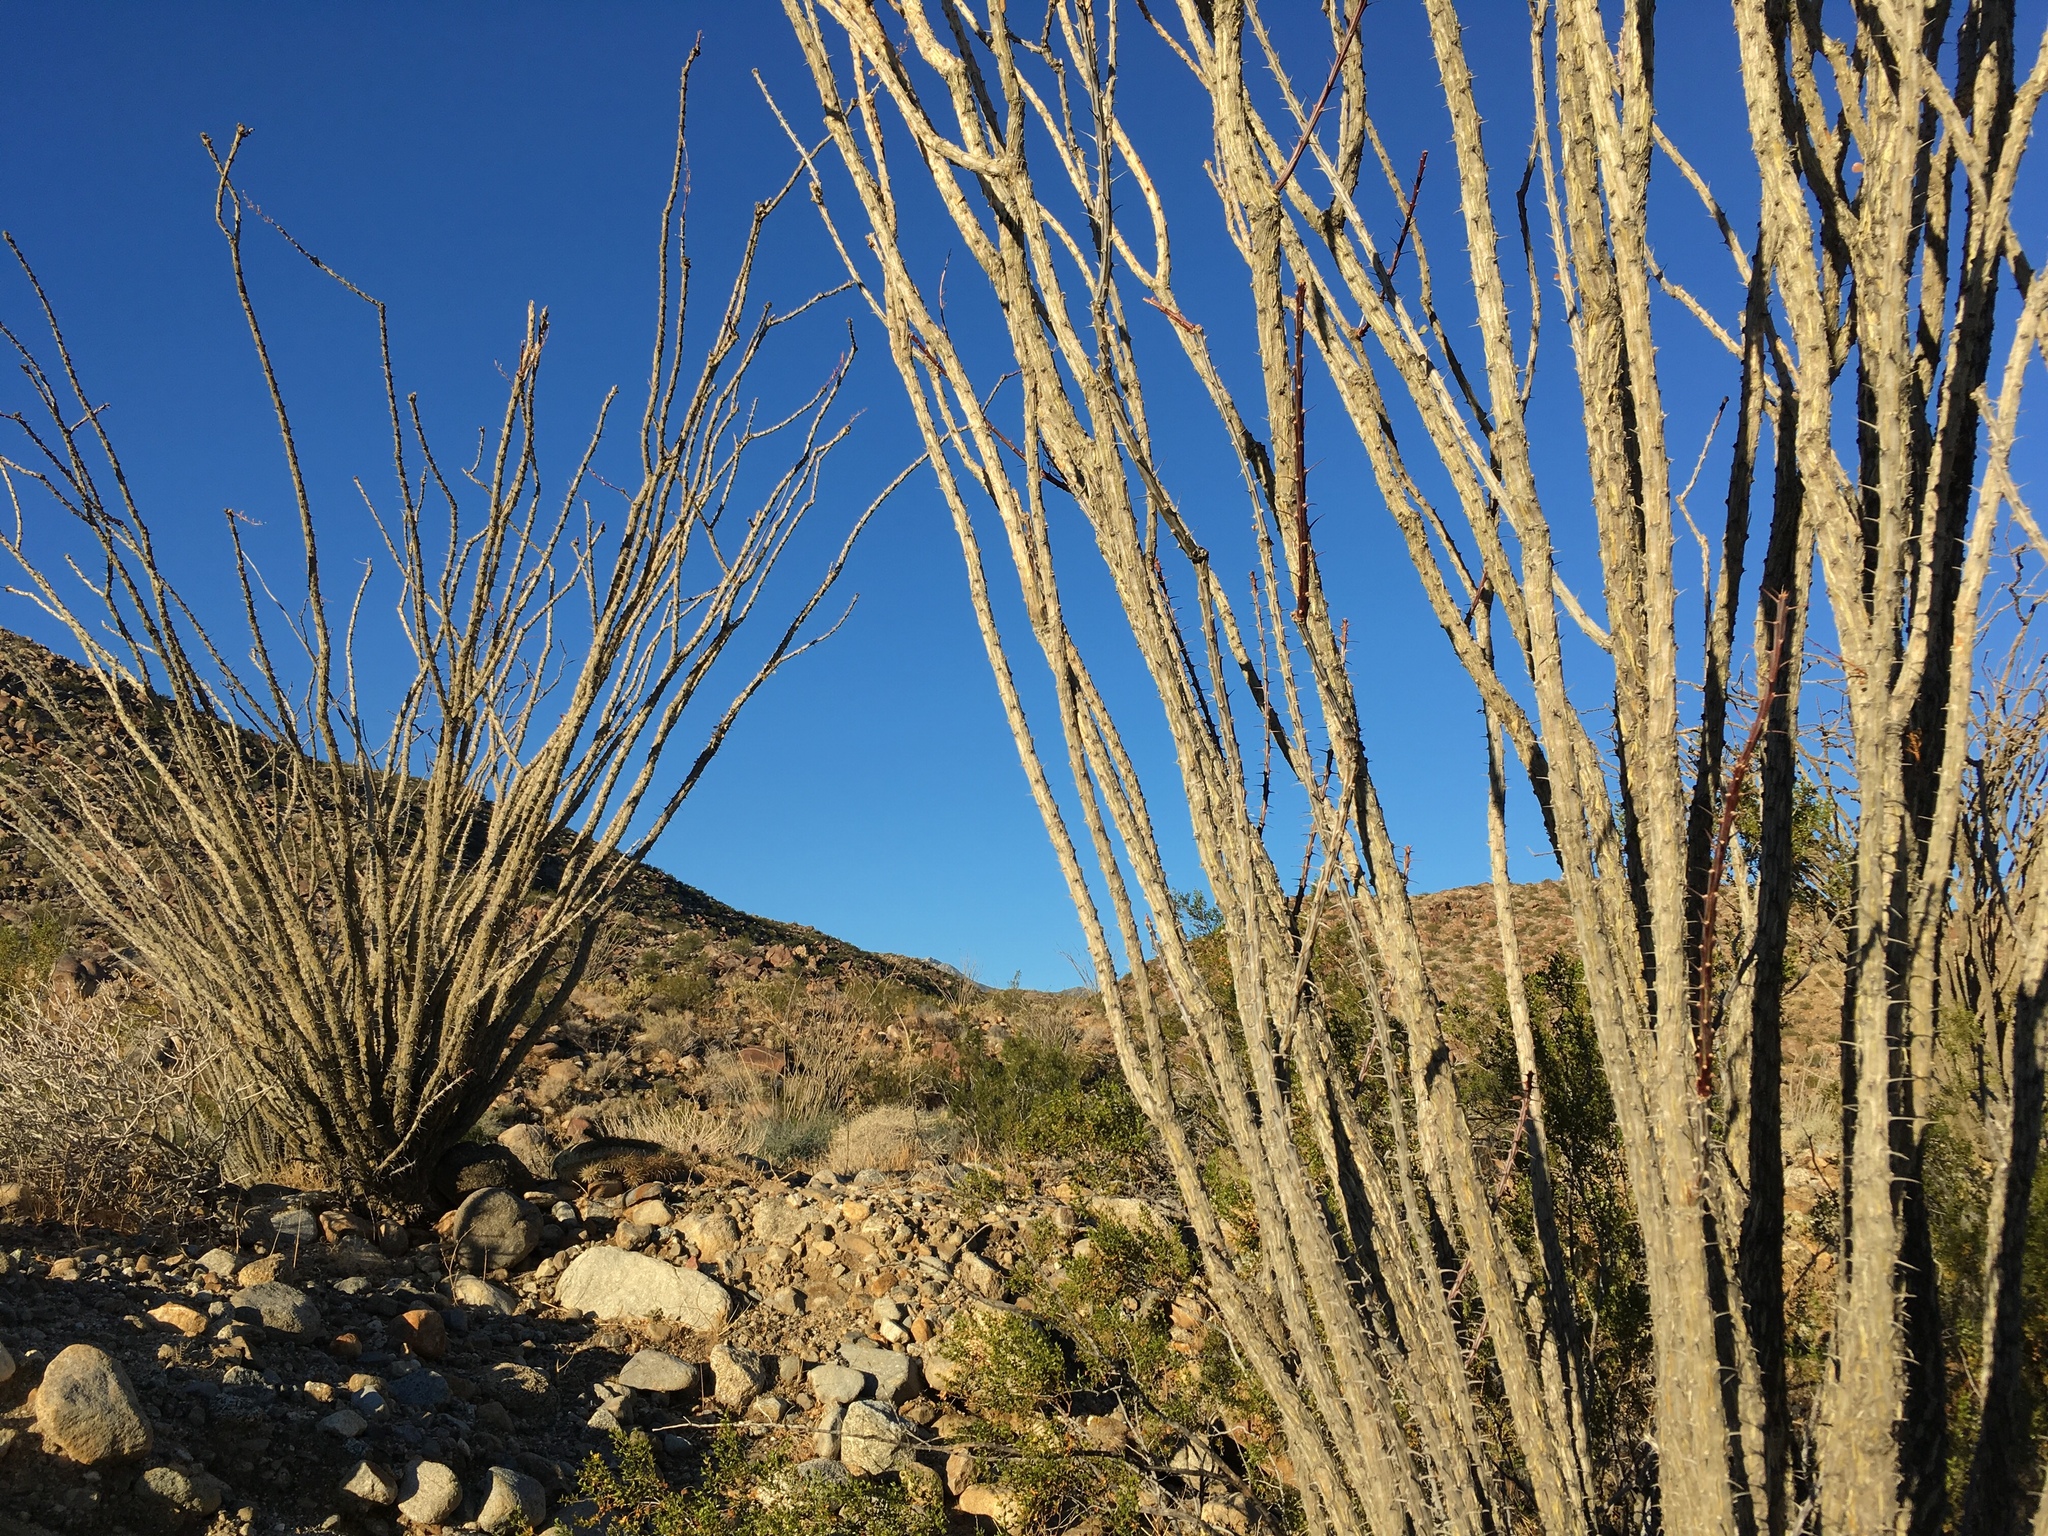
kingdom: Plantae
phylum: Tracheophyta
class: Magnoliopsida
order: Ericales
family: Fouquieriaceae
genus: Fouquieria
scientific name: Fouquieria splendens
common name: Vine-cactus
